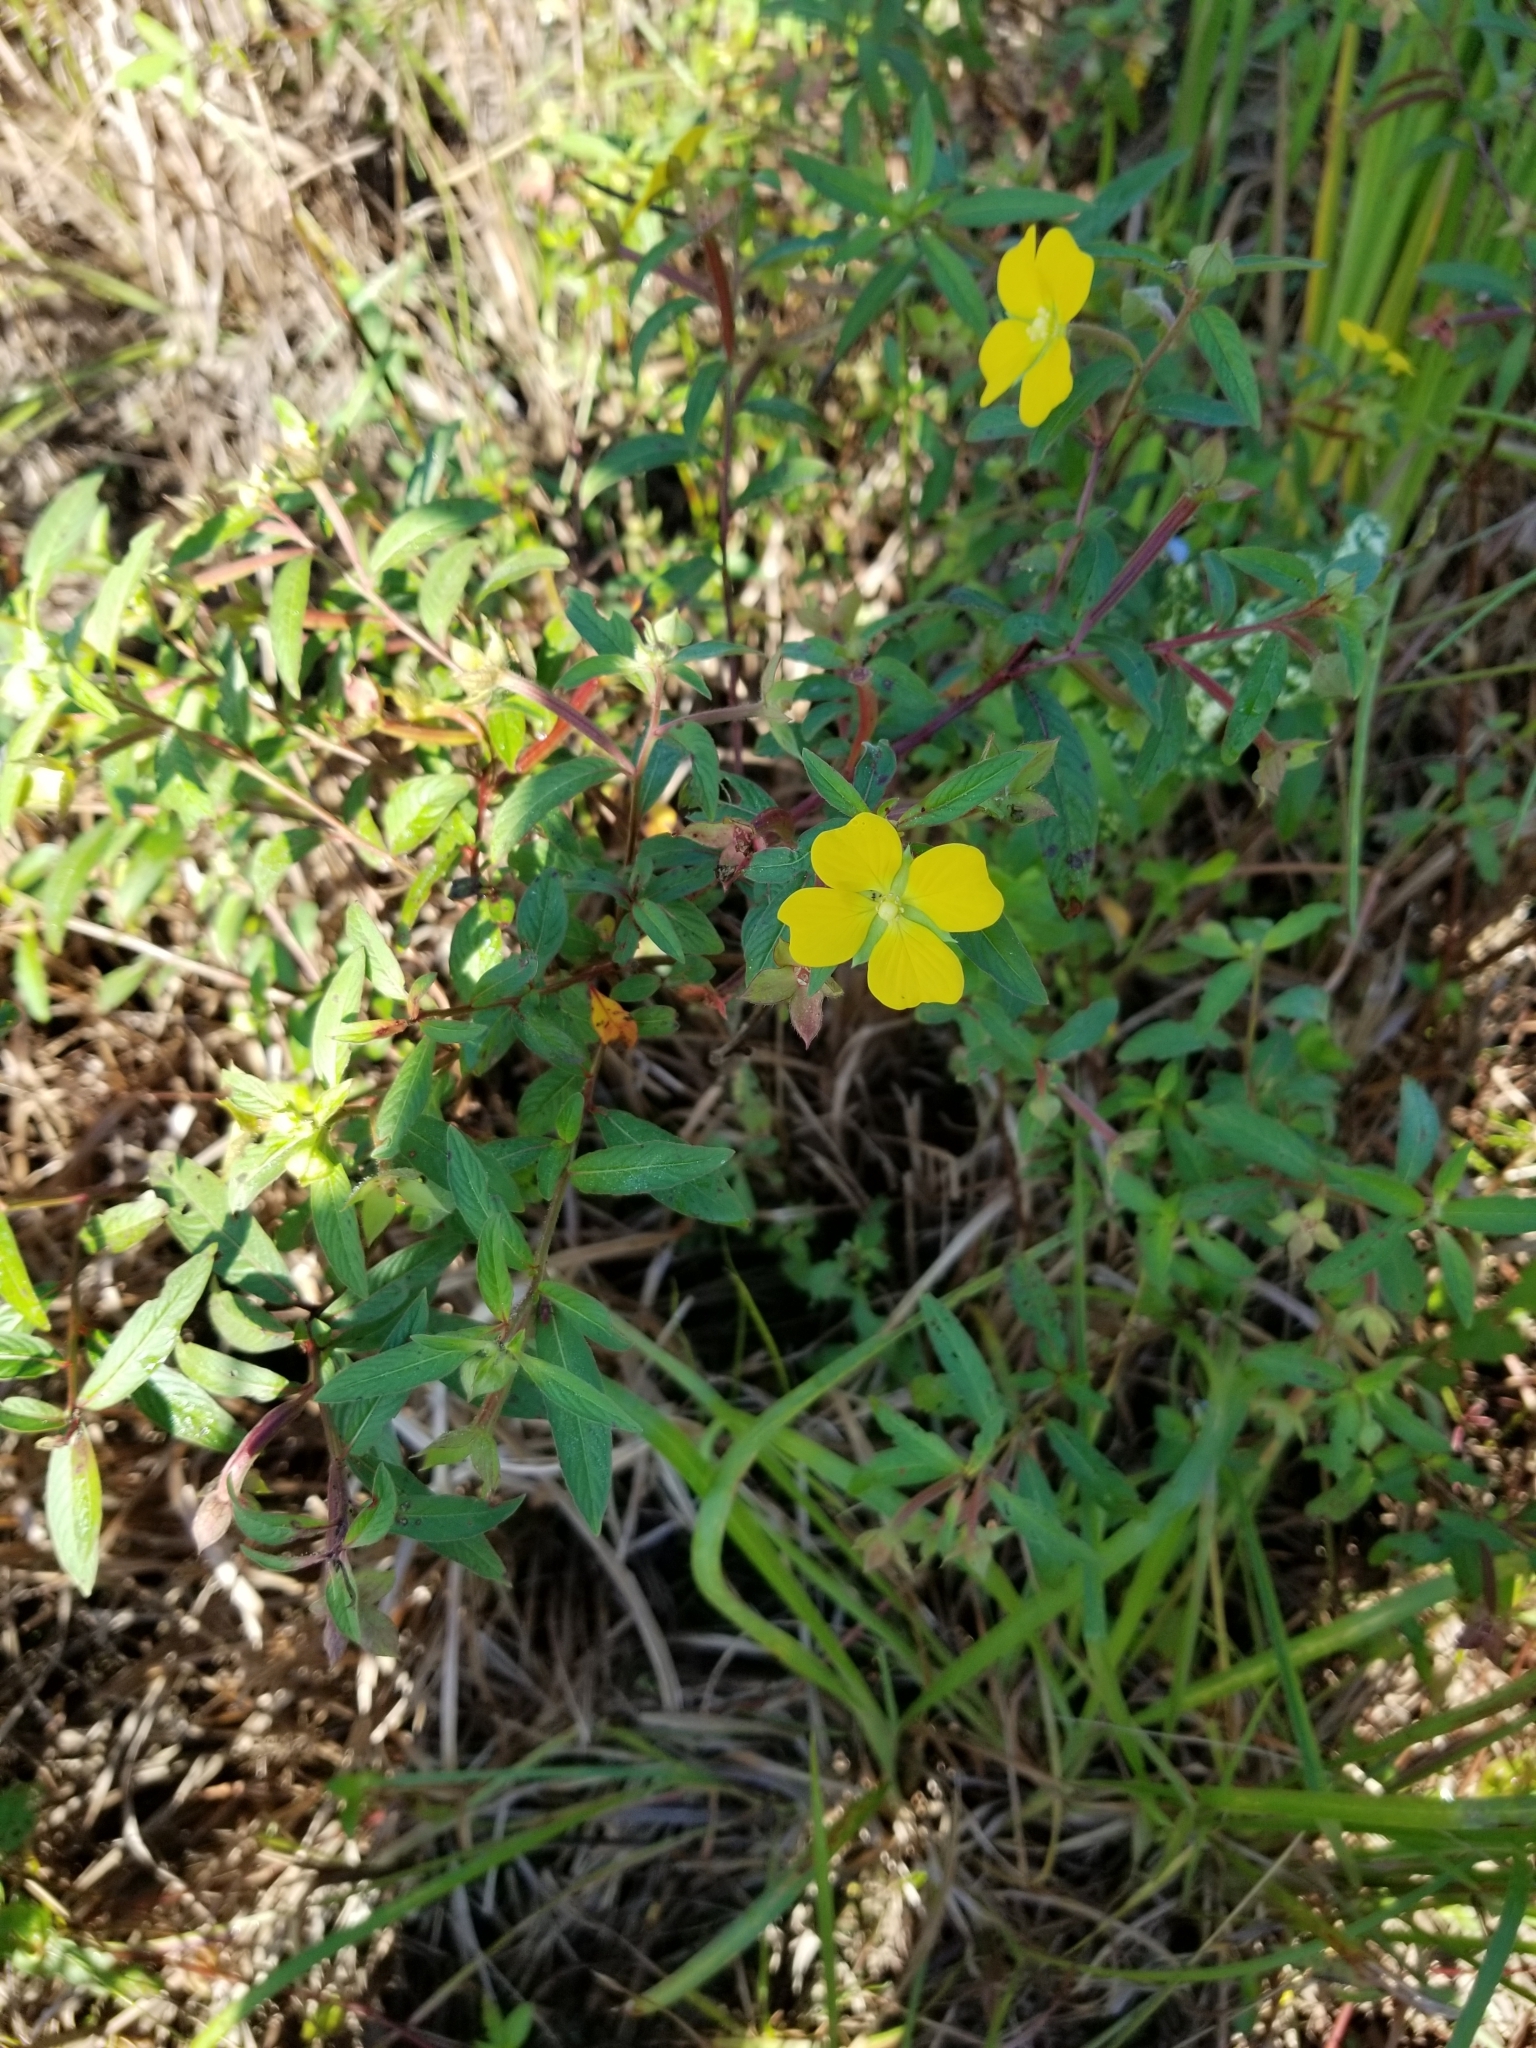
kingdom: Plantae
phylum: Tracheophyta
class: Magnoliopsida
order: Myrtales
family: Onagraceae
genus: Ludwigia
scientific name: Ludwigia octovalvis
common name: Water-primrose
